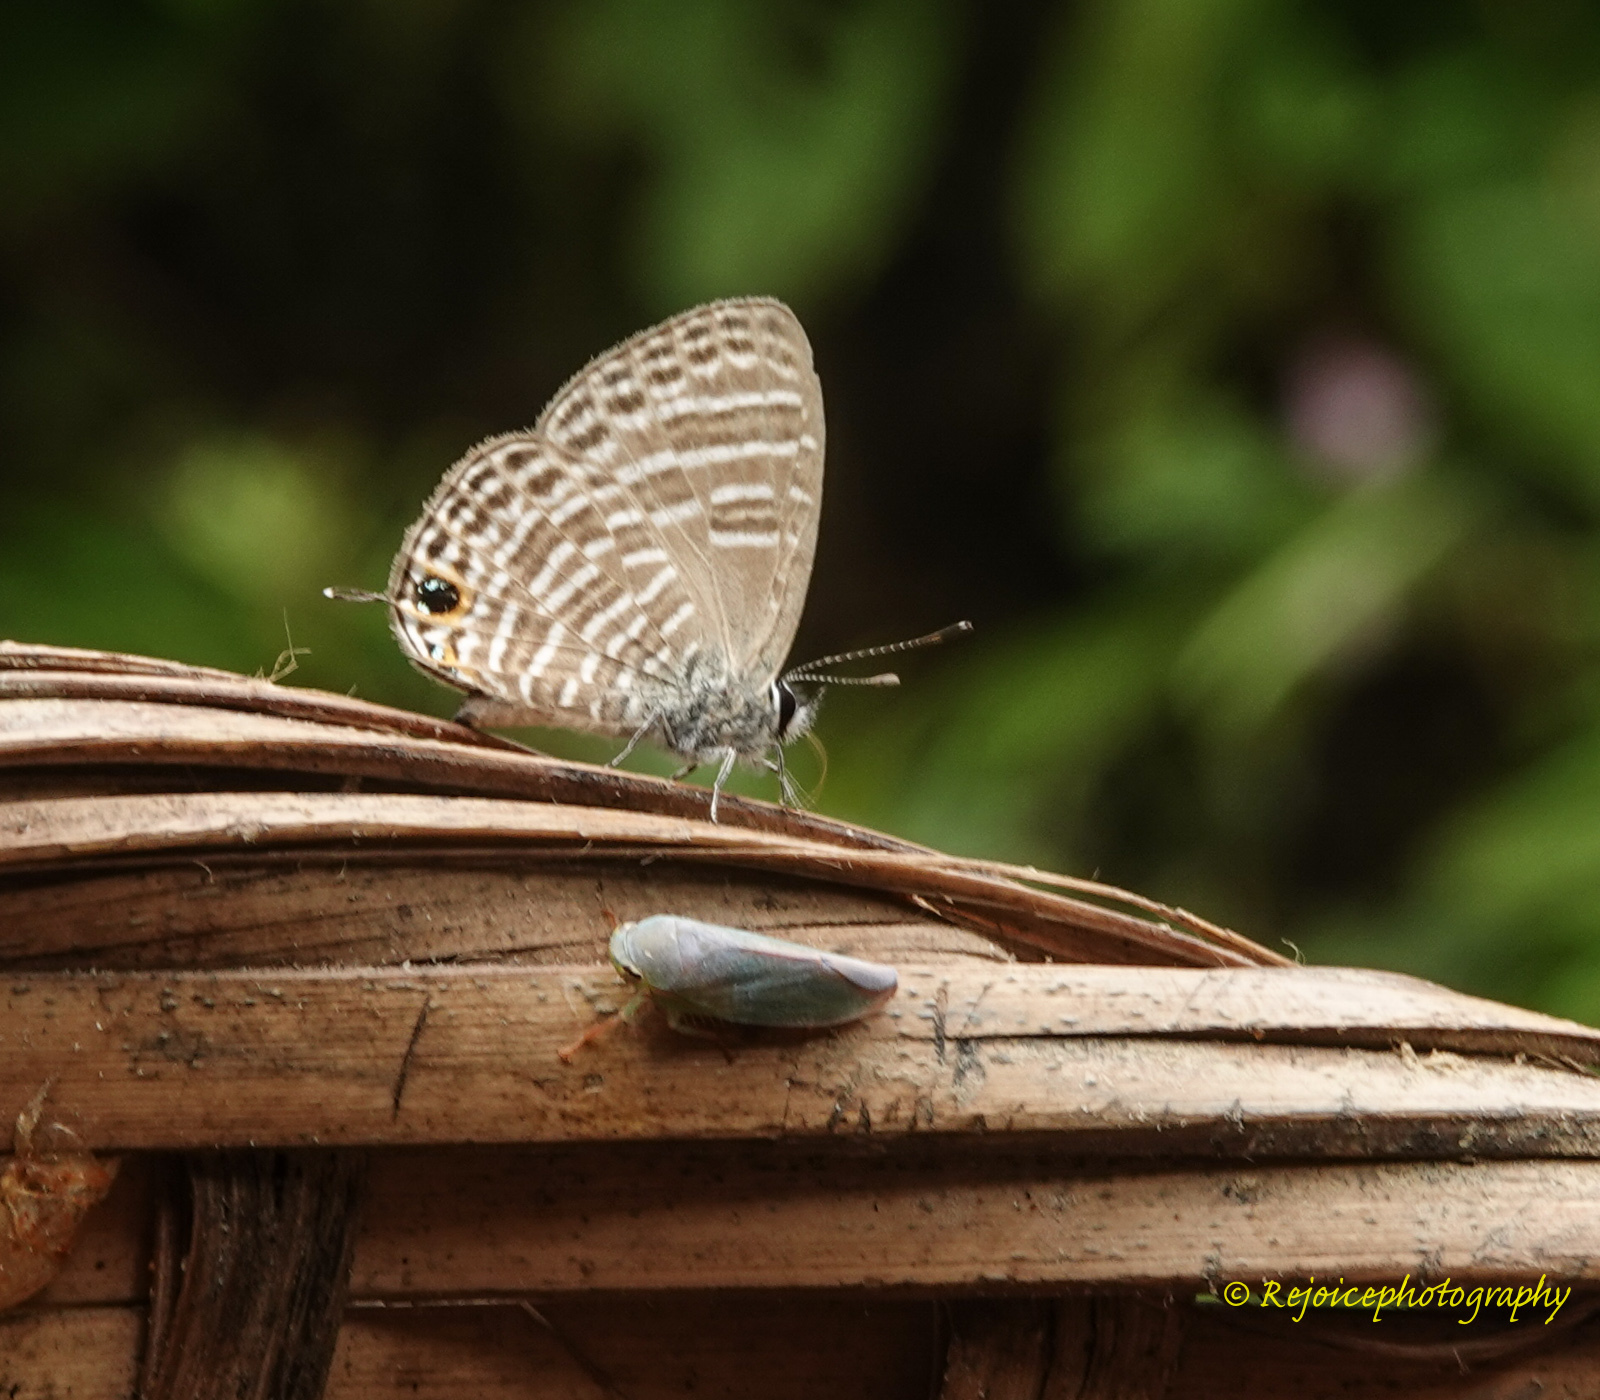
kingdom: Animalia
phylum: Arthropoda
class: Insecta
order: Lepidoptera
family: Lycaenidae
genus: Nacaduba
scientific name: Nacaduba pavana
